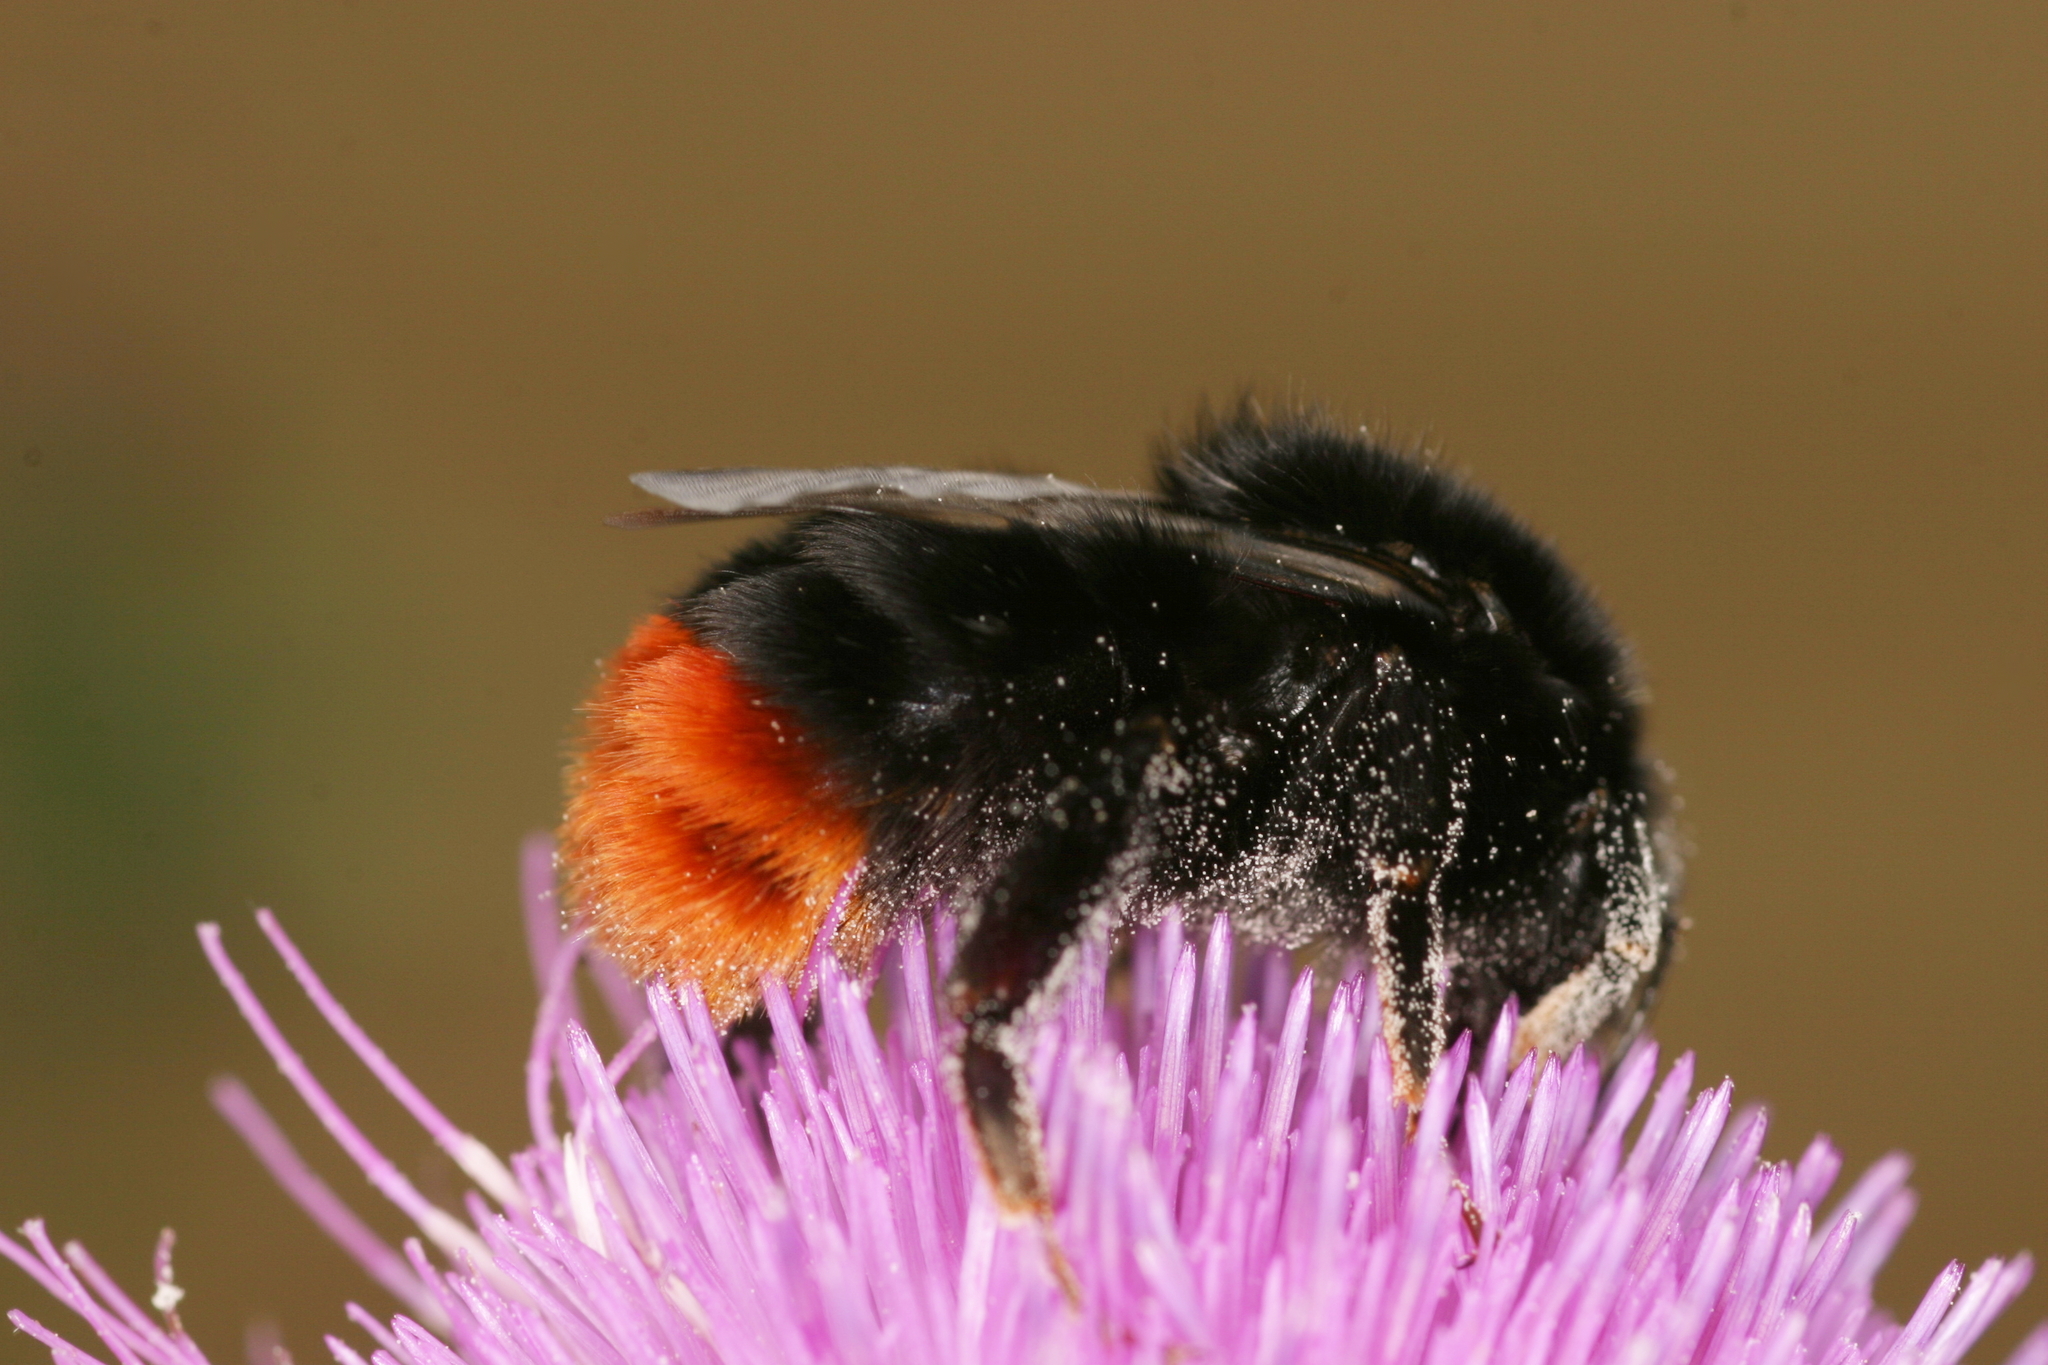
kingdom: Animalia
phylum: Arthropoda
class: Insecta
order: Hymenoptera
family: Apidae
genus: Bombus
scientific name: Bombus lapidarius
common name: Large red-tailed humble-bee
